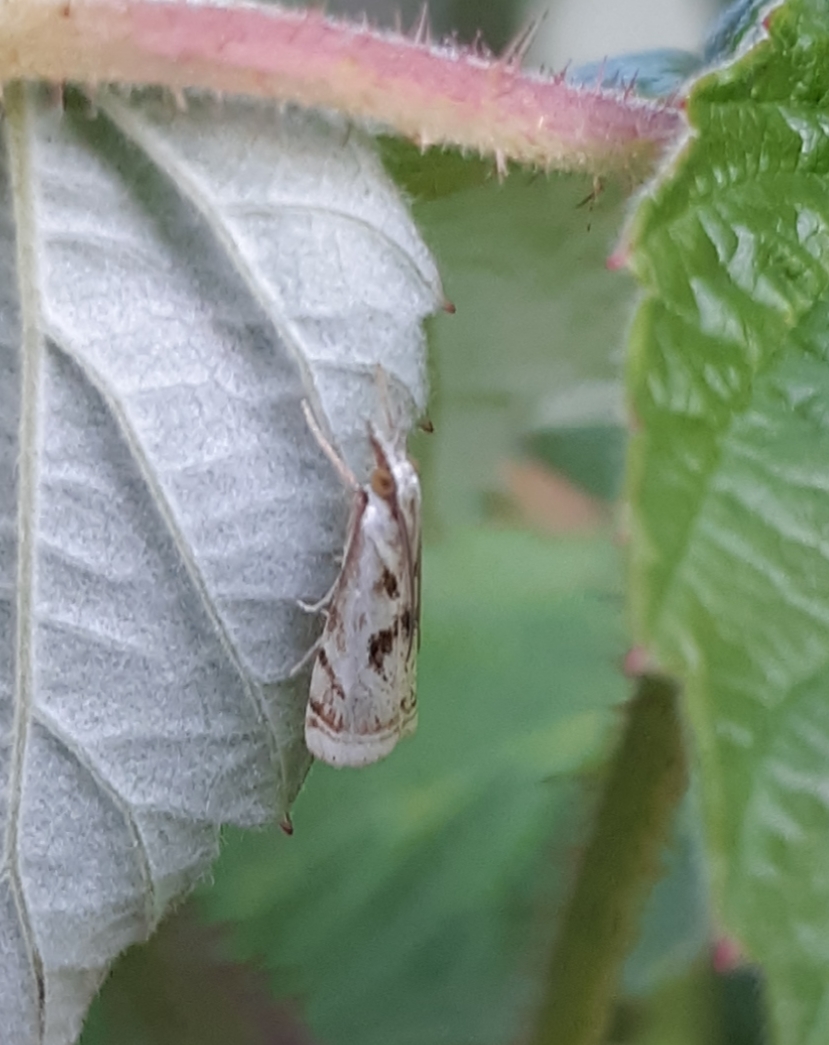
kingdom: Animalia
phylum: Arthropoda
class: Insecta
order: Lepidoptera
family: Crambidae
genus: Microcrambus
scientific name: Microcrambus elegans
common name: Elegant grass-veneer
